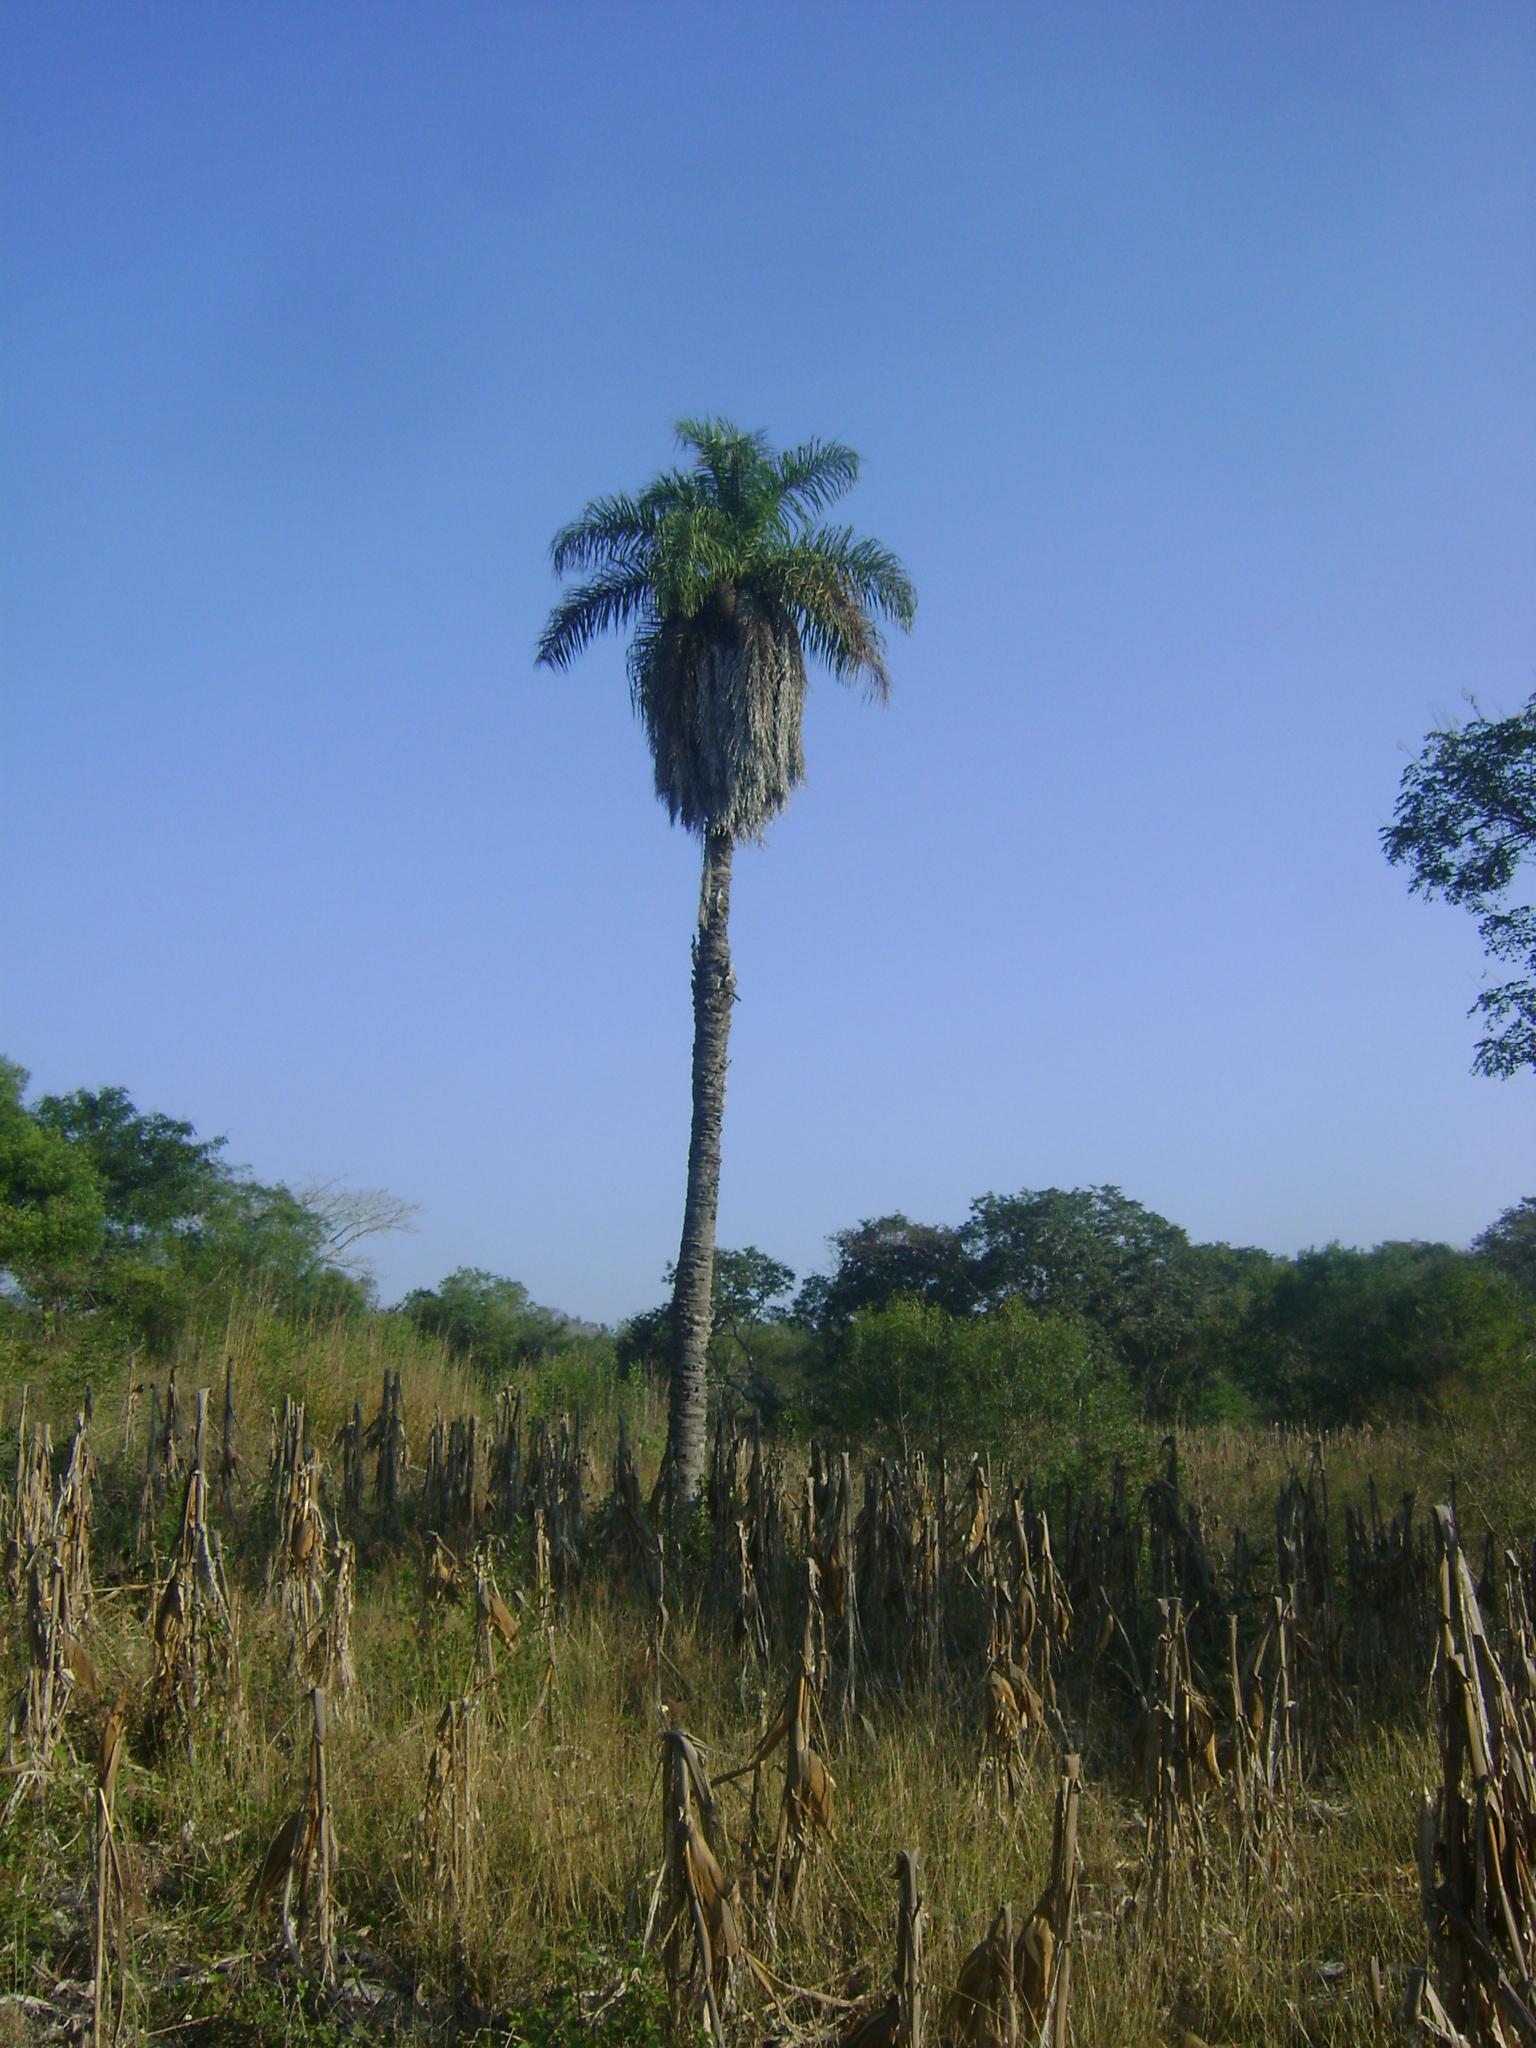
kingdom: Plantae
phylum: Tracheophyta
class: Liliopsida
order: Arecales
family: Arecaceae
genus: Acrocomia
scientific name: Acrocomia aculeata
